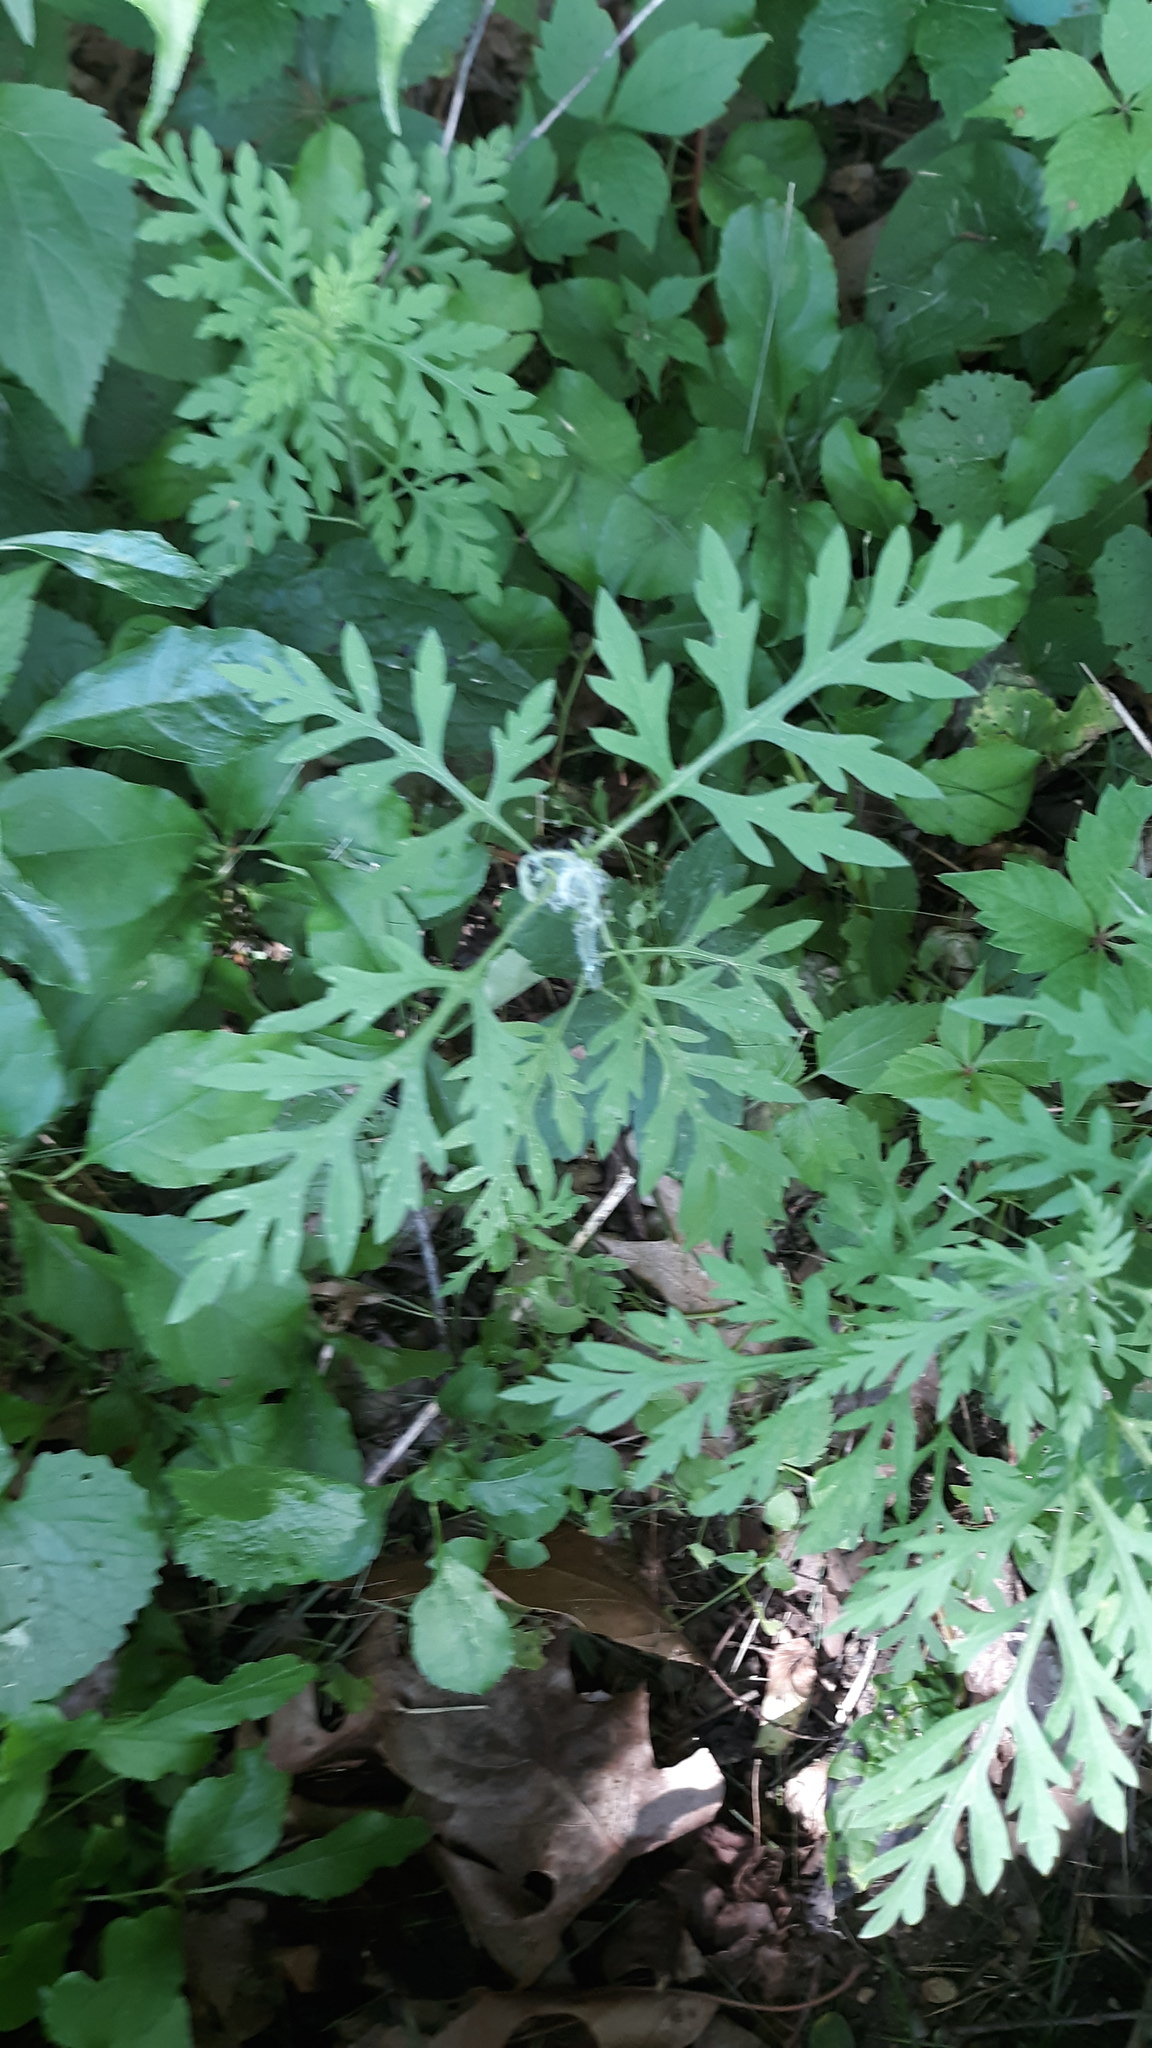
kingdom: Plantae
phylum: Tracheophyta
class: Magnoliopsida
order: Asterales
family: Asteraceae
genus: Ambrosia
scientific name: Ambrosia artemisiifolia
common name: Annual ragweed
